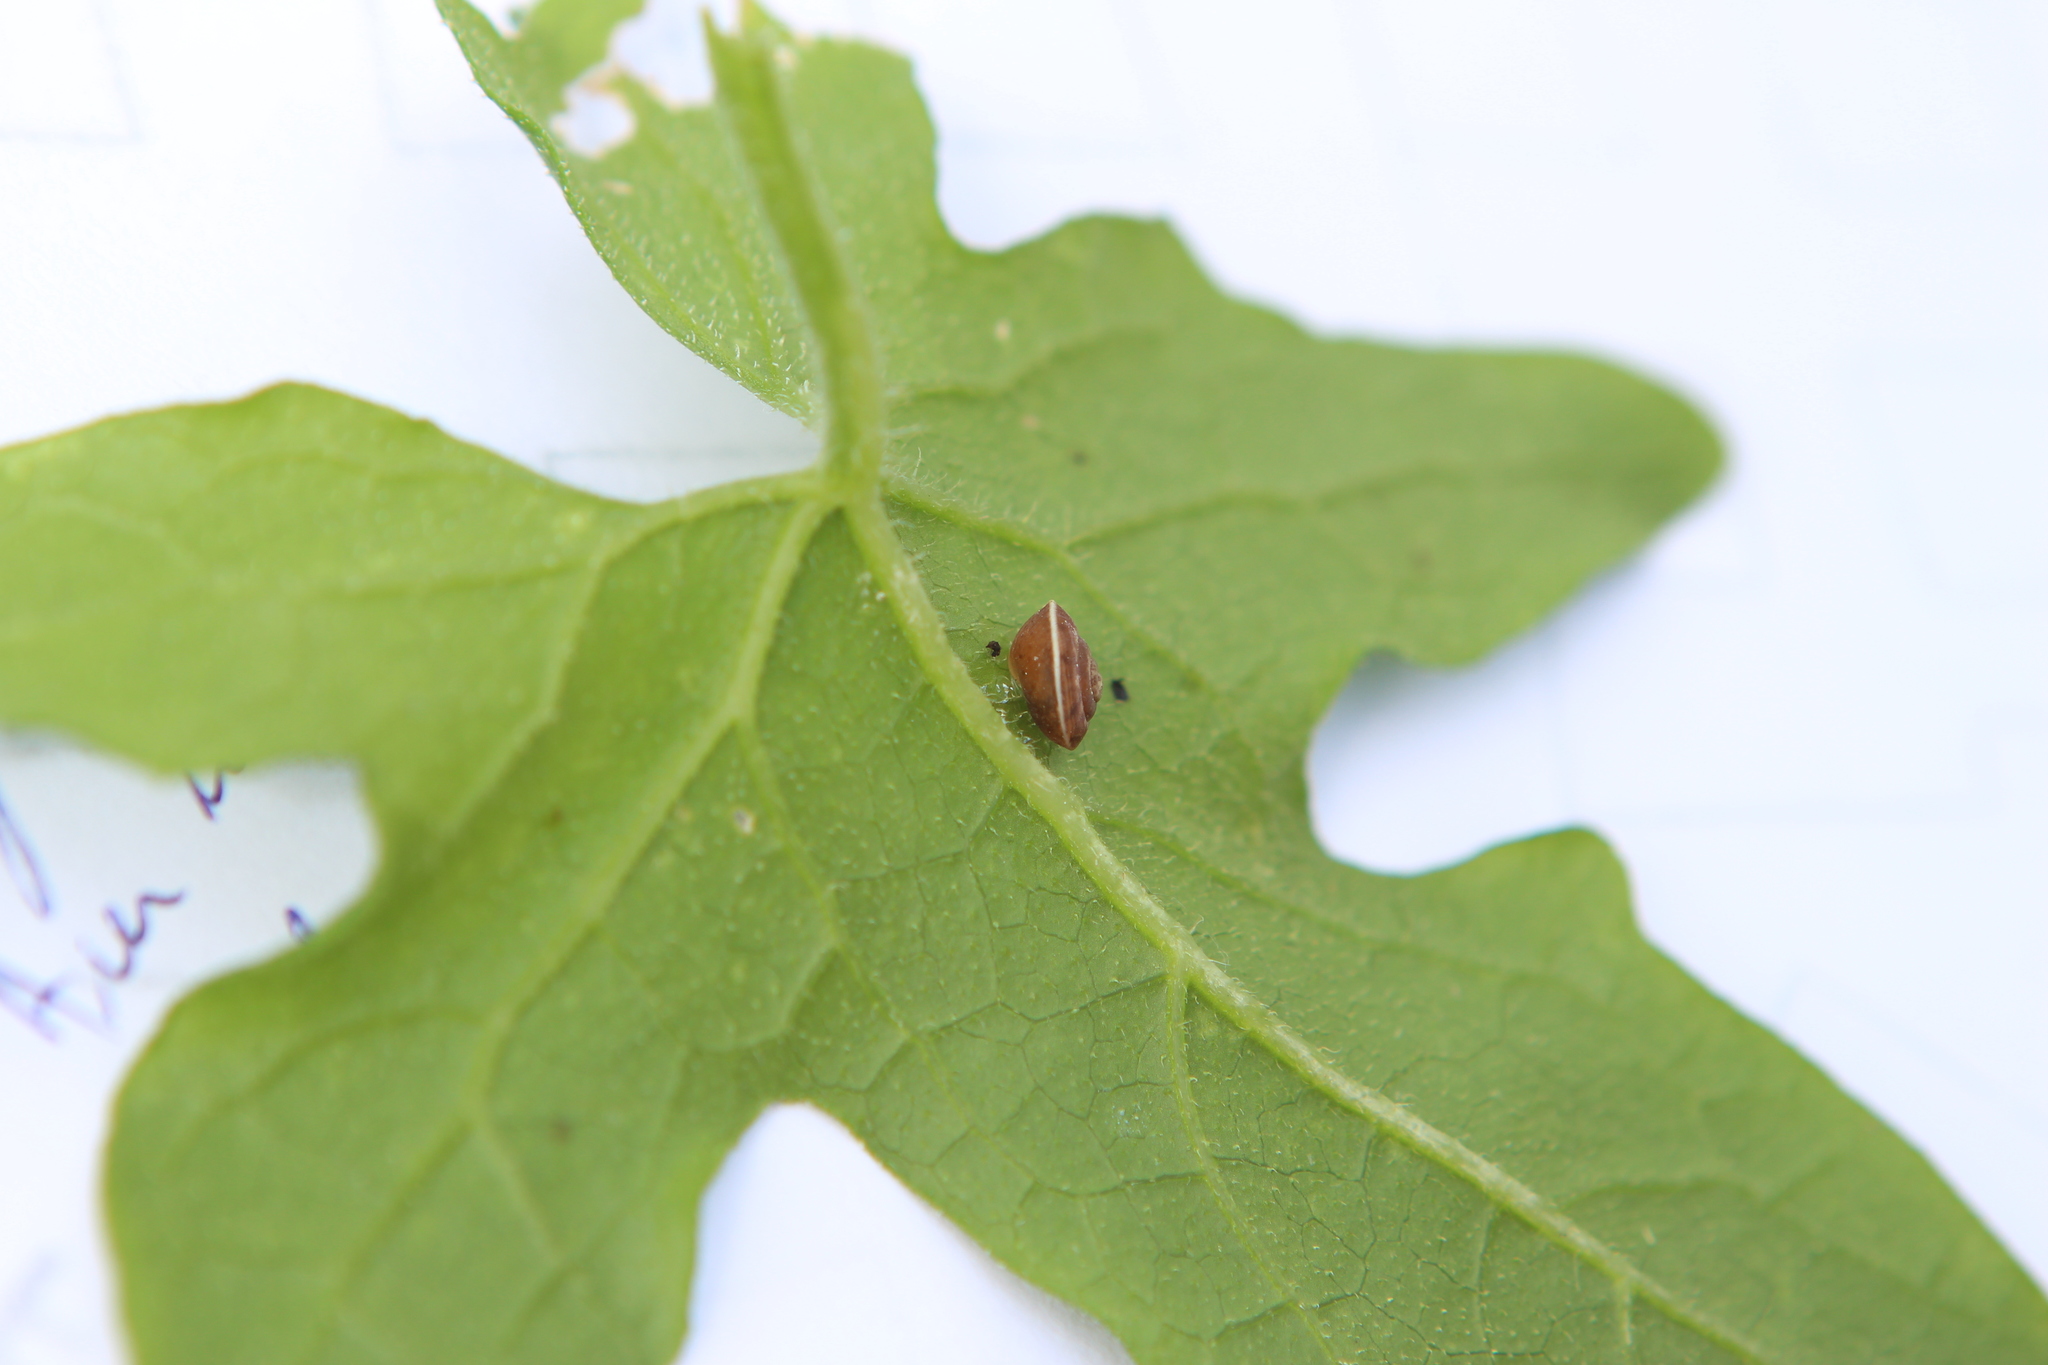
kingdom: Animalia
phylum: Mollusca
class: Gastropoda
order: Stylommatophora
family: Hygromiidae
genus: Hygromia
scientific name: Hygromia cinctella
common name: Girdled snail
